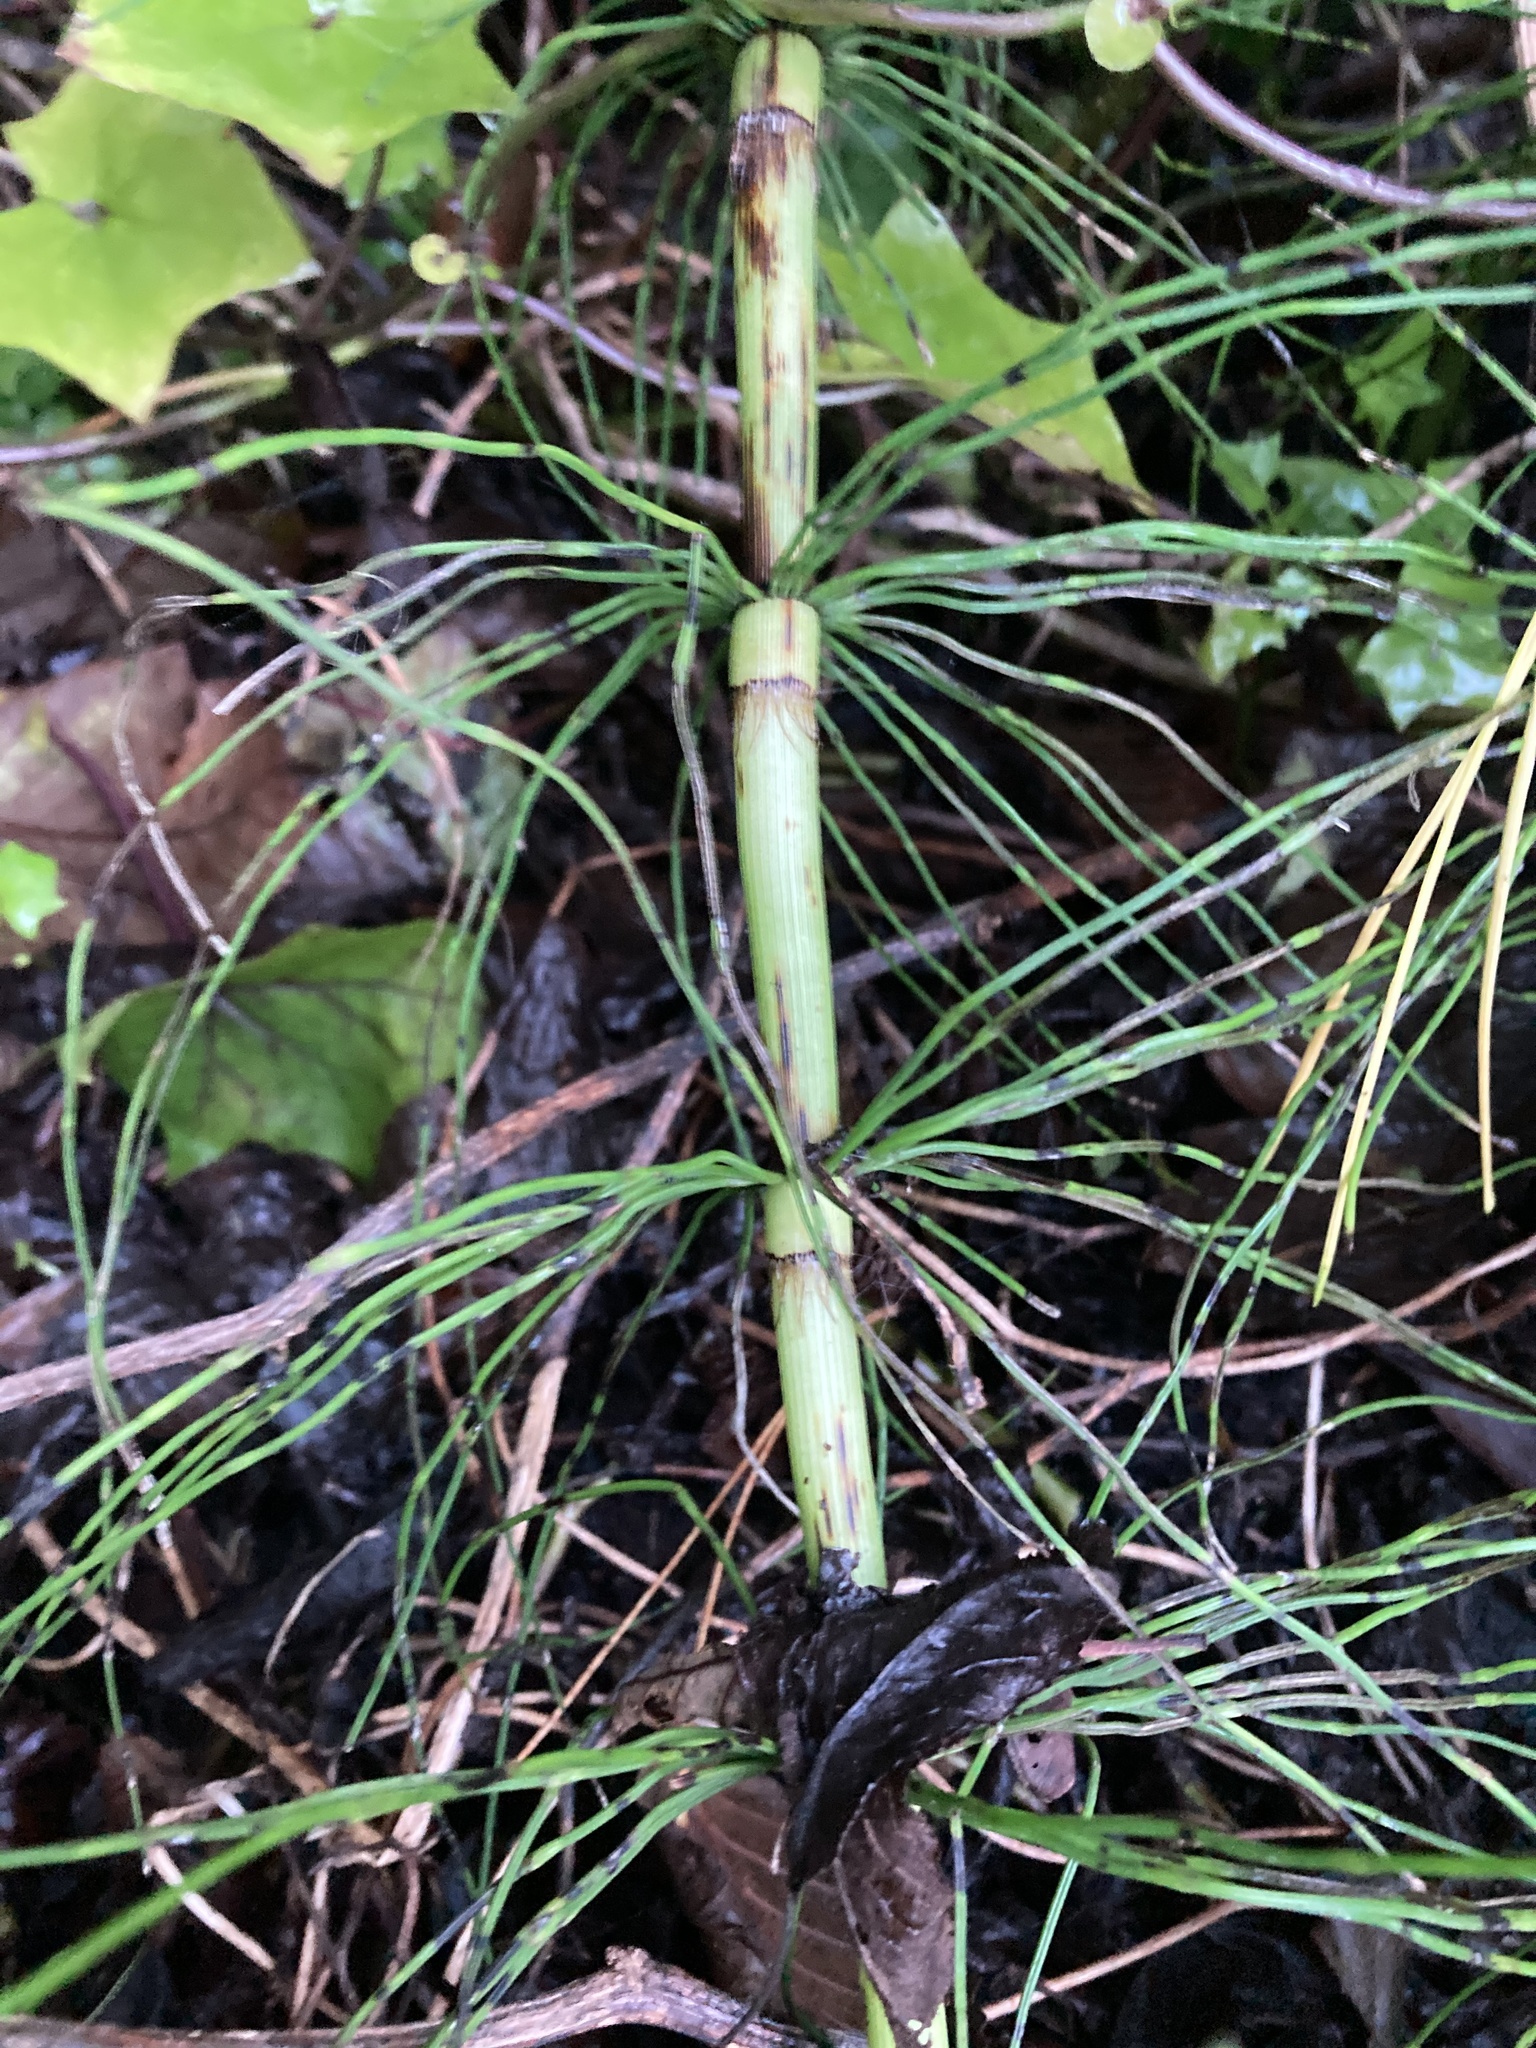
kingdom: Plantae
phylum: Tracheophyta
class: Polypodiopsida
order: Equisetales
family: Equisetaceae
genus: Equisetum
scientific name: Equisetum telmateia
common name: Great horsetail
